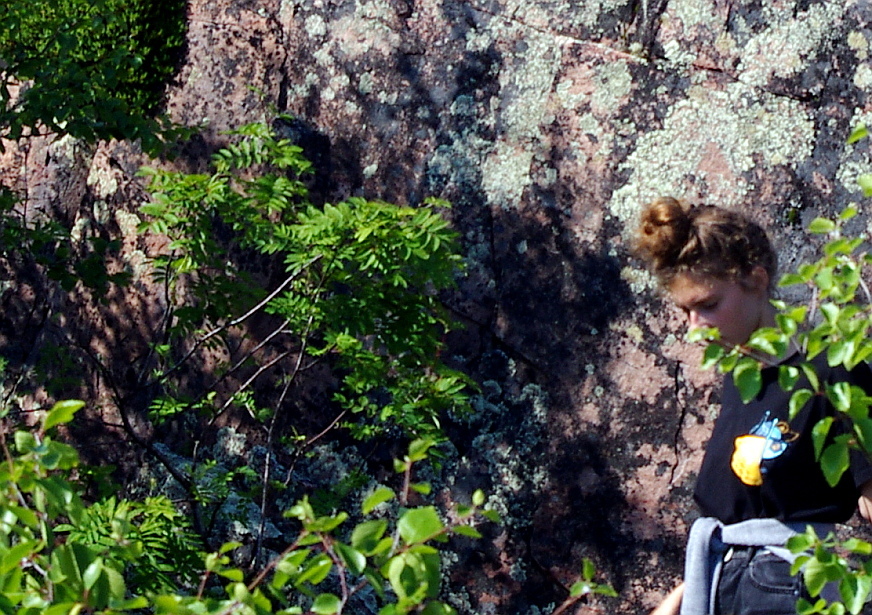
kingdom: Plantae
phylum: Tracheophyta
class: Magnoliopsida
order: Rosales
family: Rosaceae
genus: Sorbus
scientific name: Sorbus aucuparia
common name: Rowan
